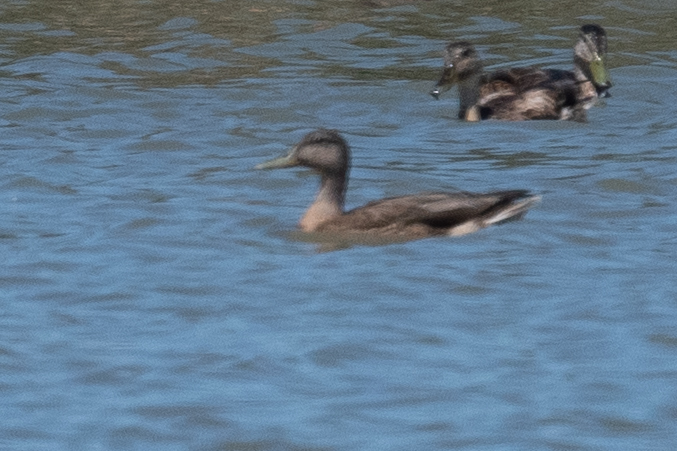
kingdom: Animalia
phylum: Chordata
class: Aves
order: Anseriformes
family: Anatidae
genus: Anas
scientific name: Anas platyrhynchos
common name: Mallard
